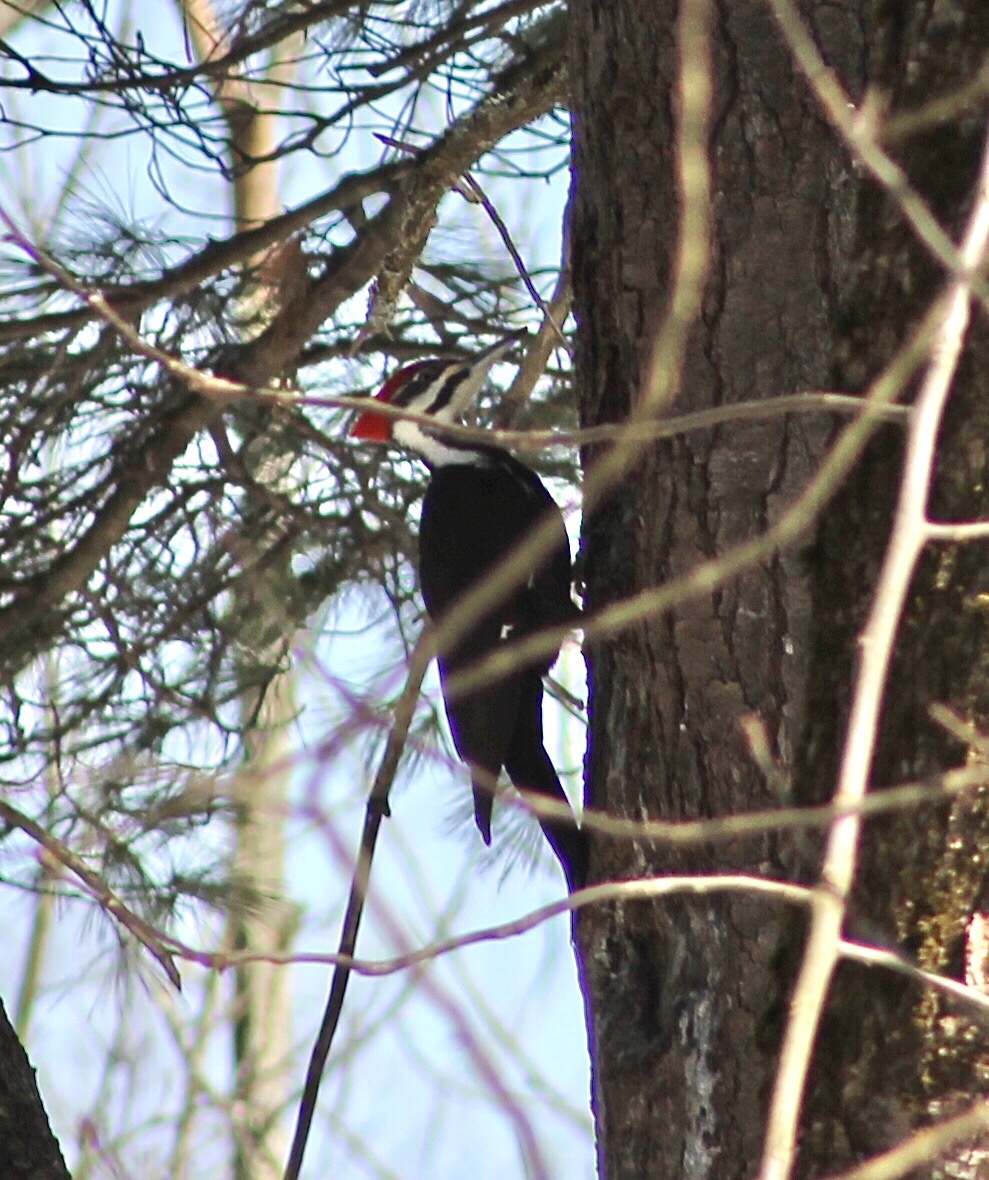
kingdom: Animalia
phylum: Chordata
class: Aves
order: Piciformes
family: Picidae
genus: Dryocopus
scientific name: Dryocopus pileatus
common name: Pileated woodpecker
